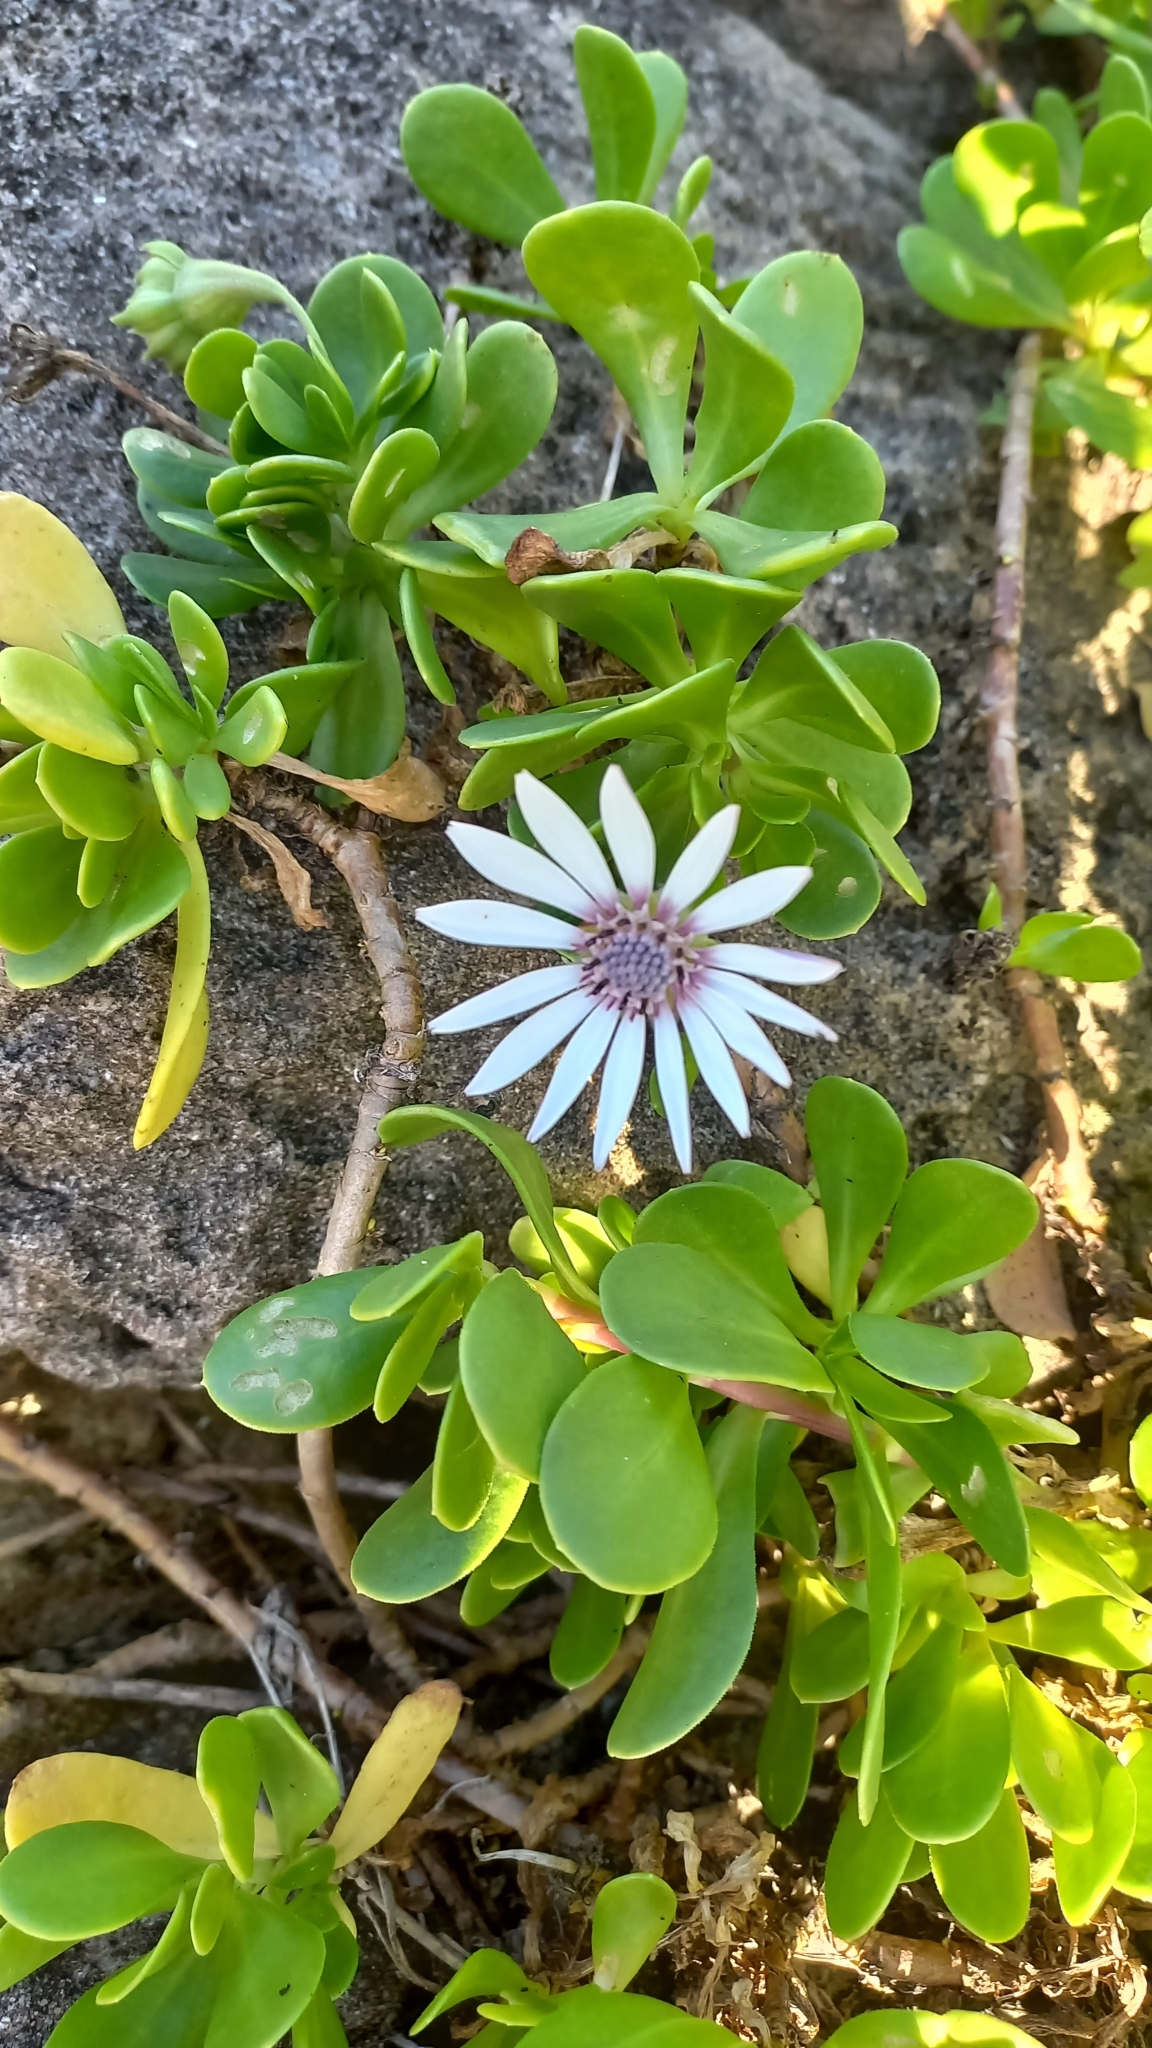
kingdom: Plantae
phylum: Tracheophyta
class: Magnoliopsida
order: Asterales
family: Asteraceae
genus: Dimorphotheca
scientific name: Dimorphotheca fruticosa
